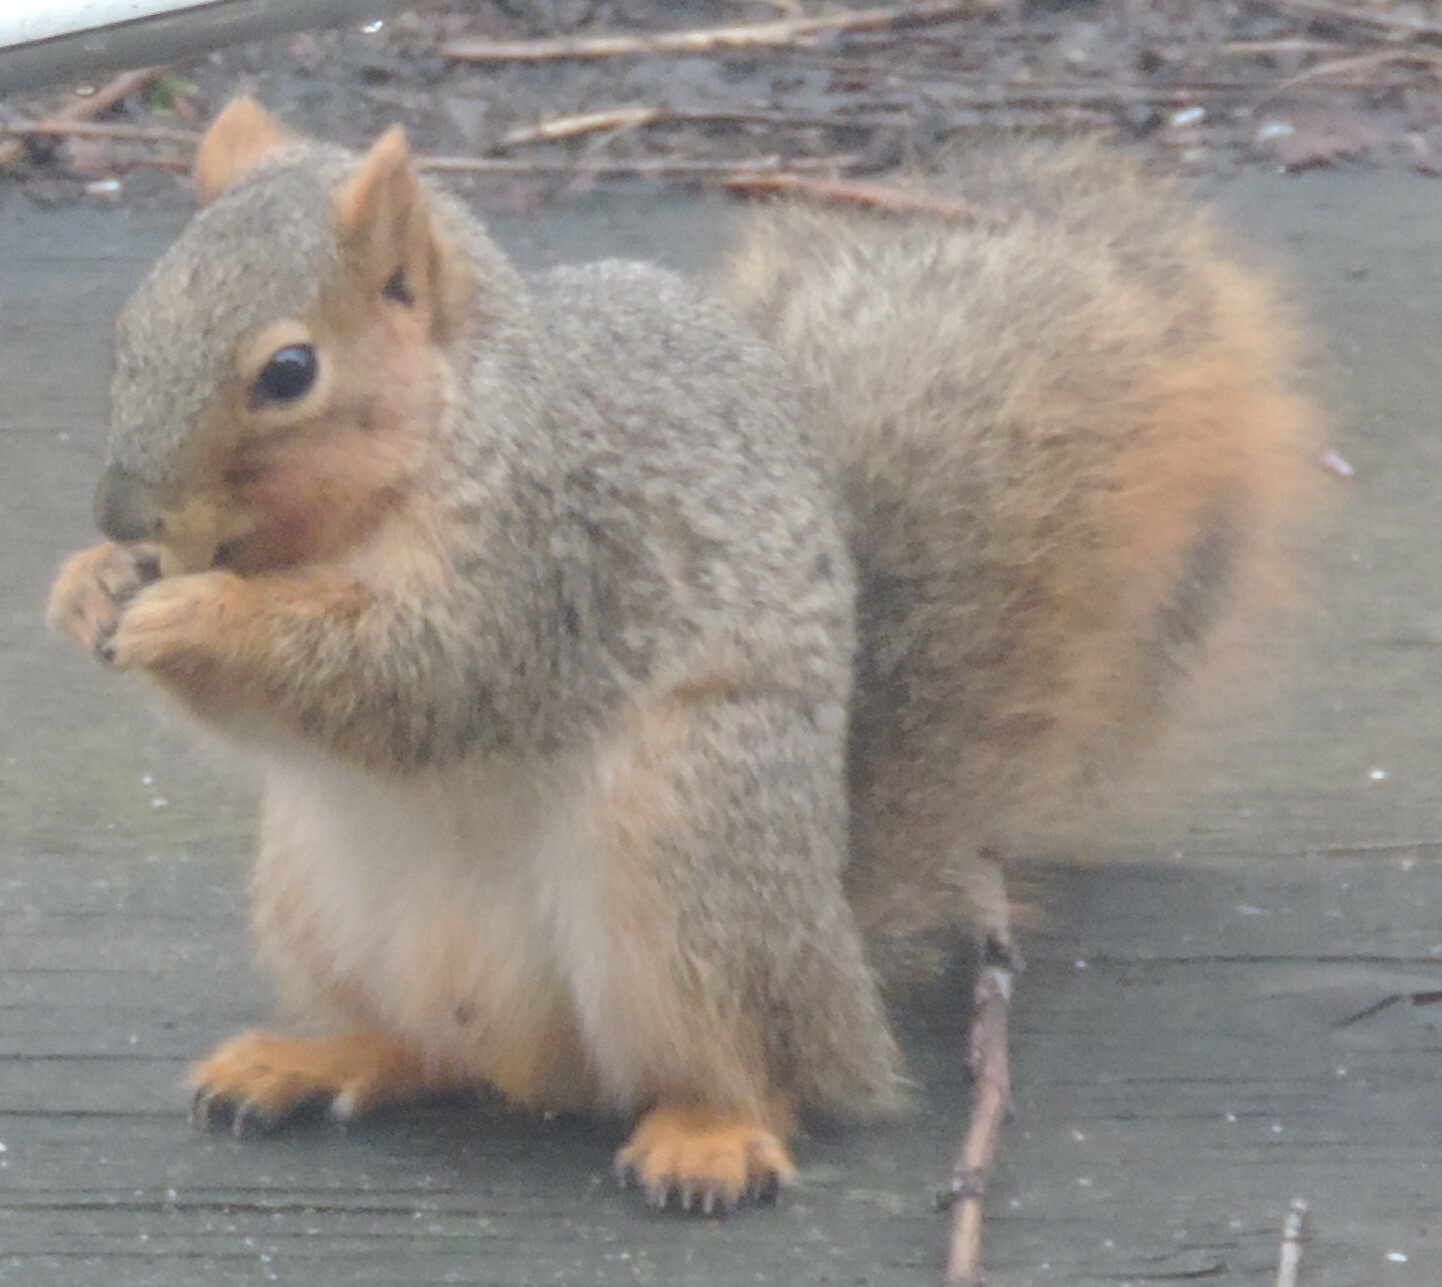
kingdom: Animalia
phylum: Chordata
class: Mammalia
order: Rodentia
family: Sciuridae
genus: Sciurus
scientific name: Sciurus niger
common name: Fox squirrel
